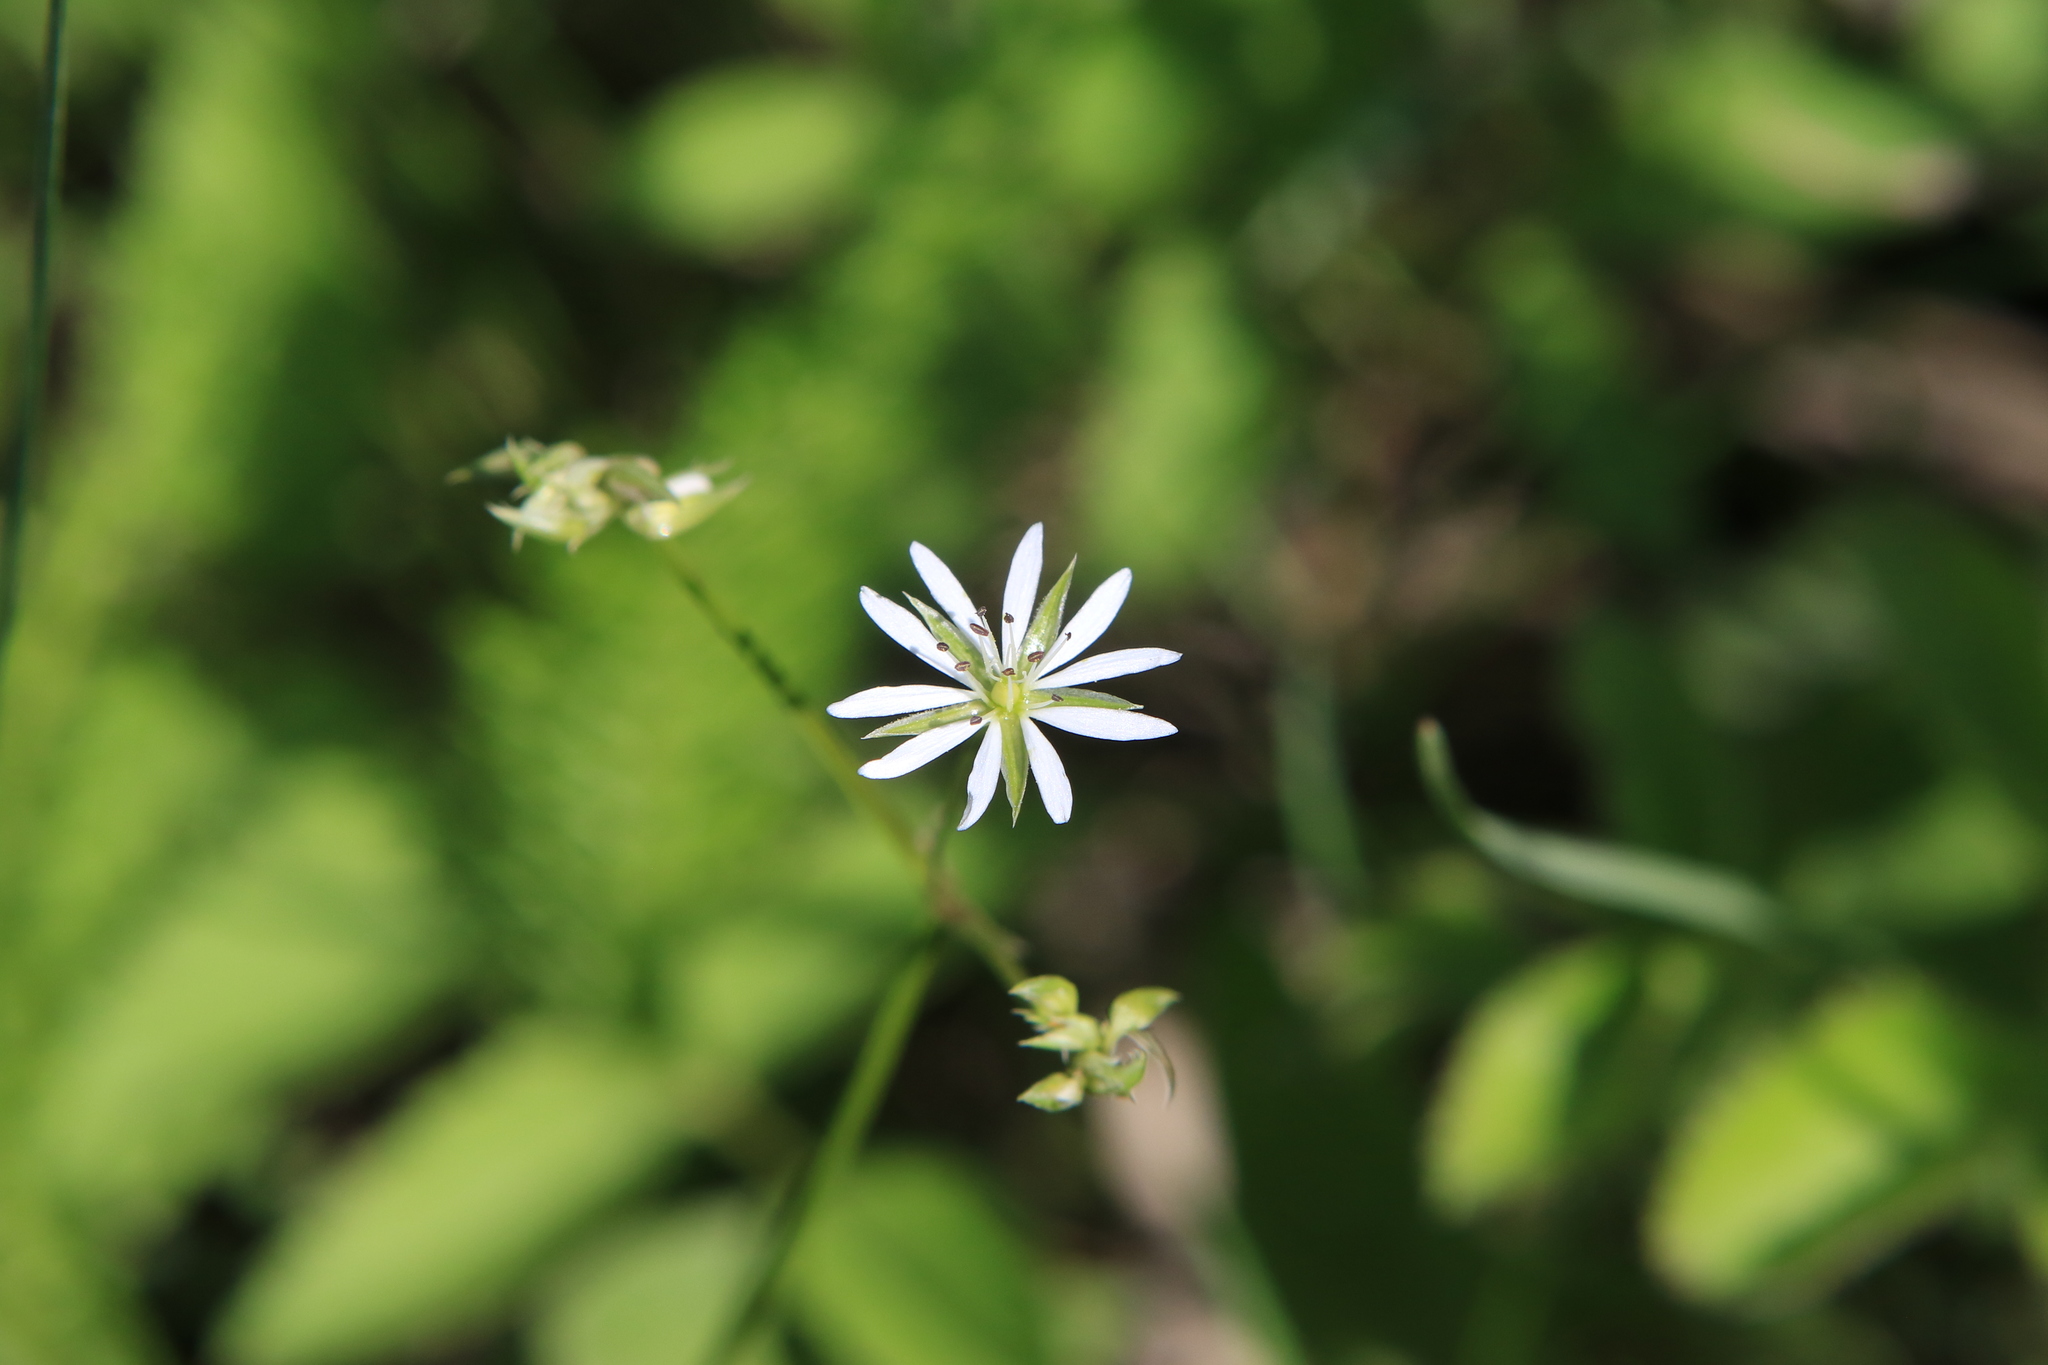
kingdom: Plantae
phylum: Tracheophyta
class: Magnoliopsida
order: Caryophyllales
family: Caryophyllaceae
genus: Stellaria
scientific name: Stellaria graminea
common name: Grass-like starwort
